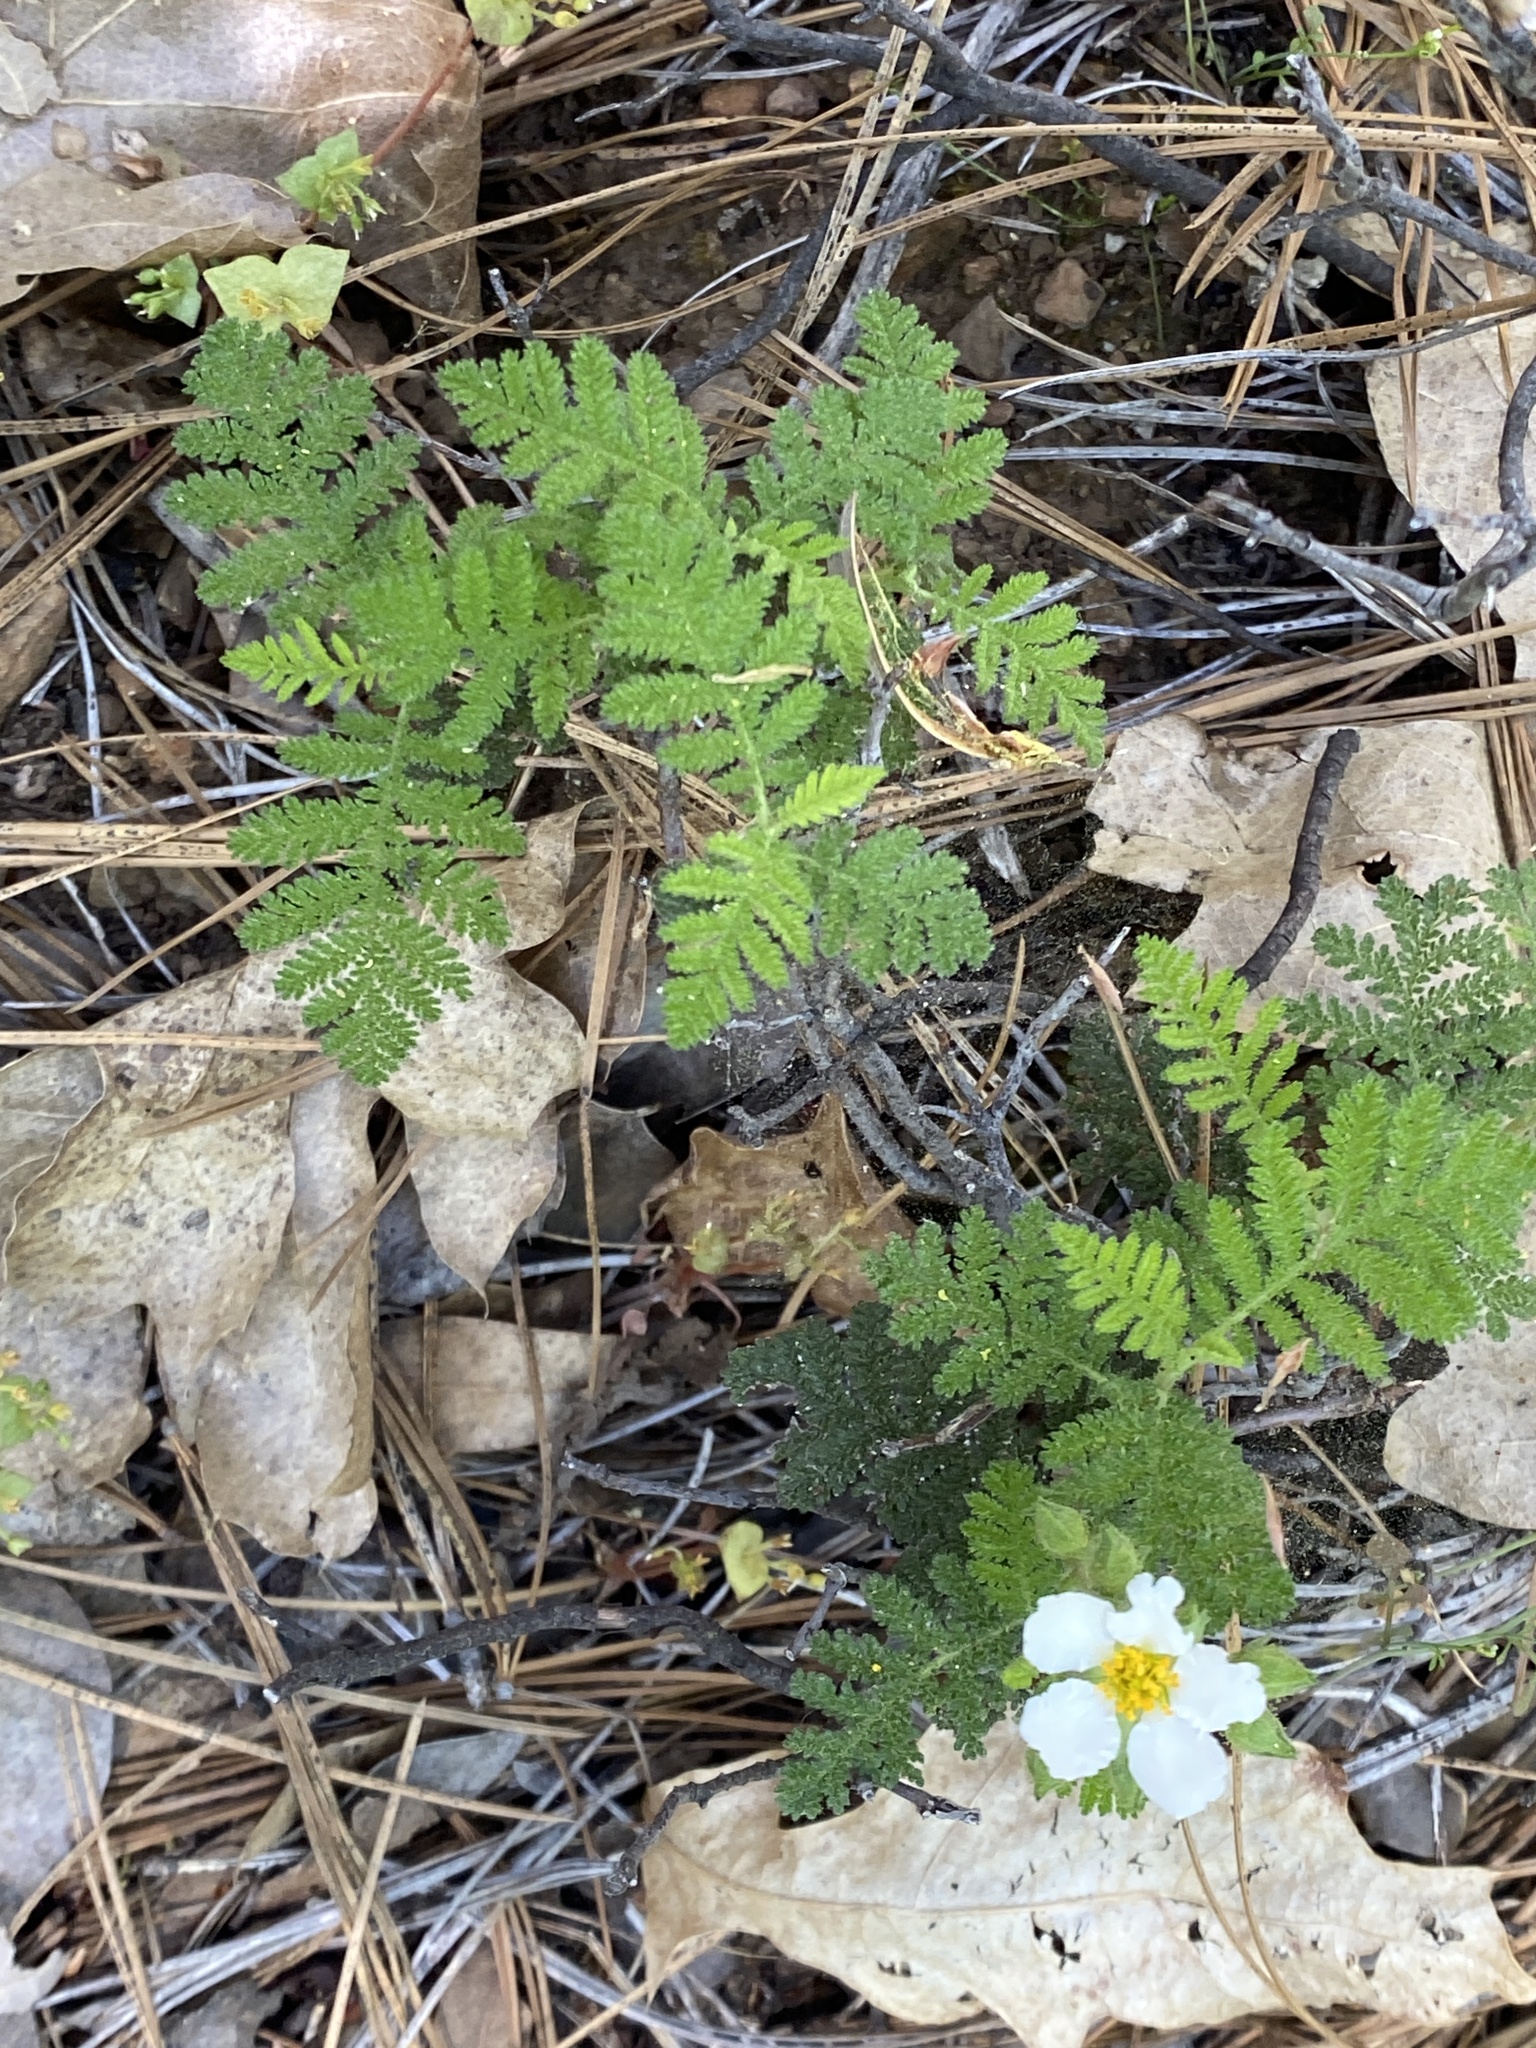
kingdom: Plantae
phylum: Tracheophyta
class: Magnoliopsida
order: Rosales
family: Rosaceae
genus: Chamaebatia
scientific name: Chamaebatia foliolosa
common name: Mountain misery
